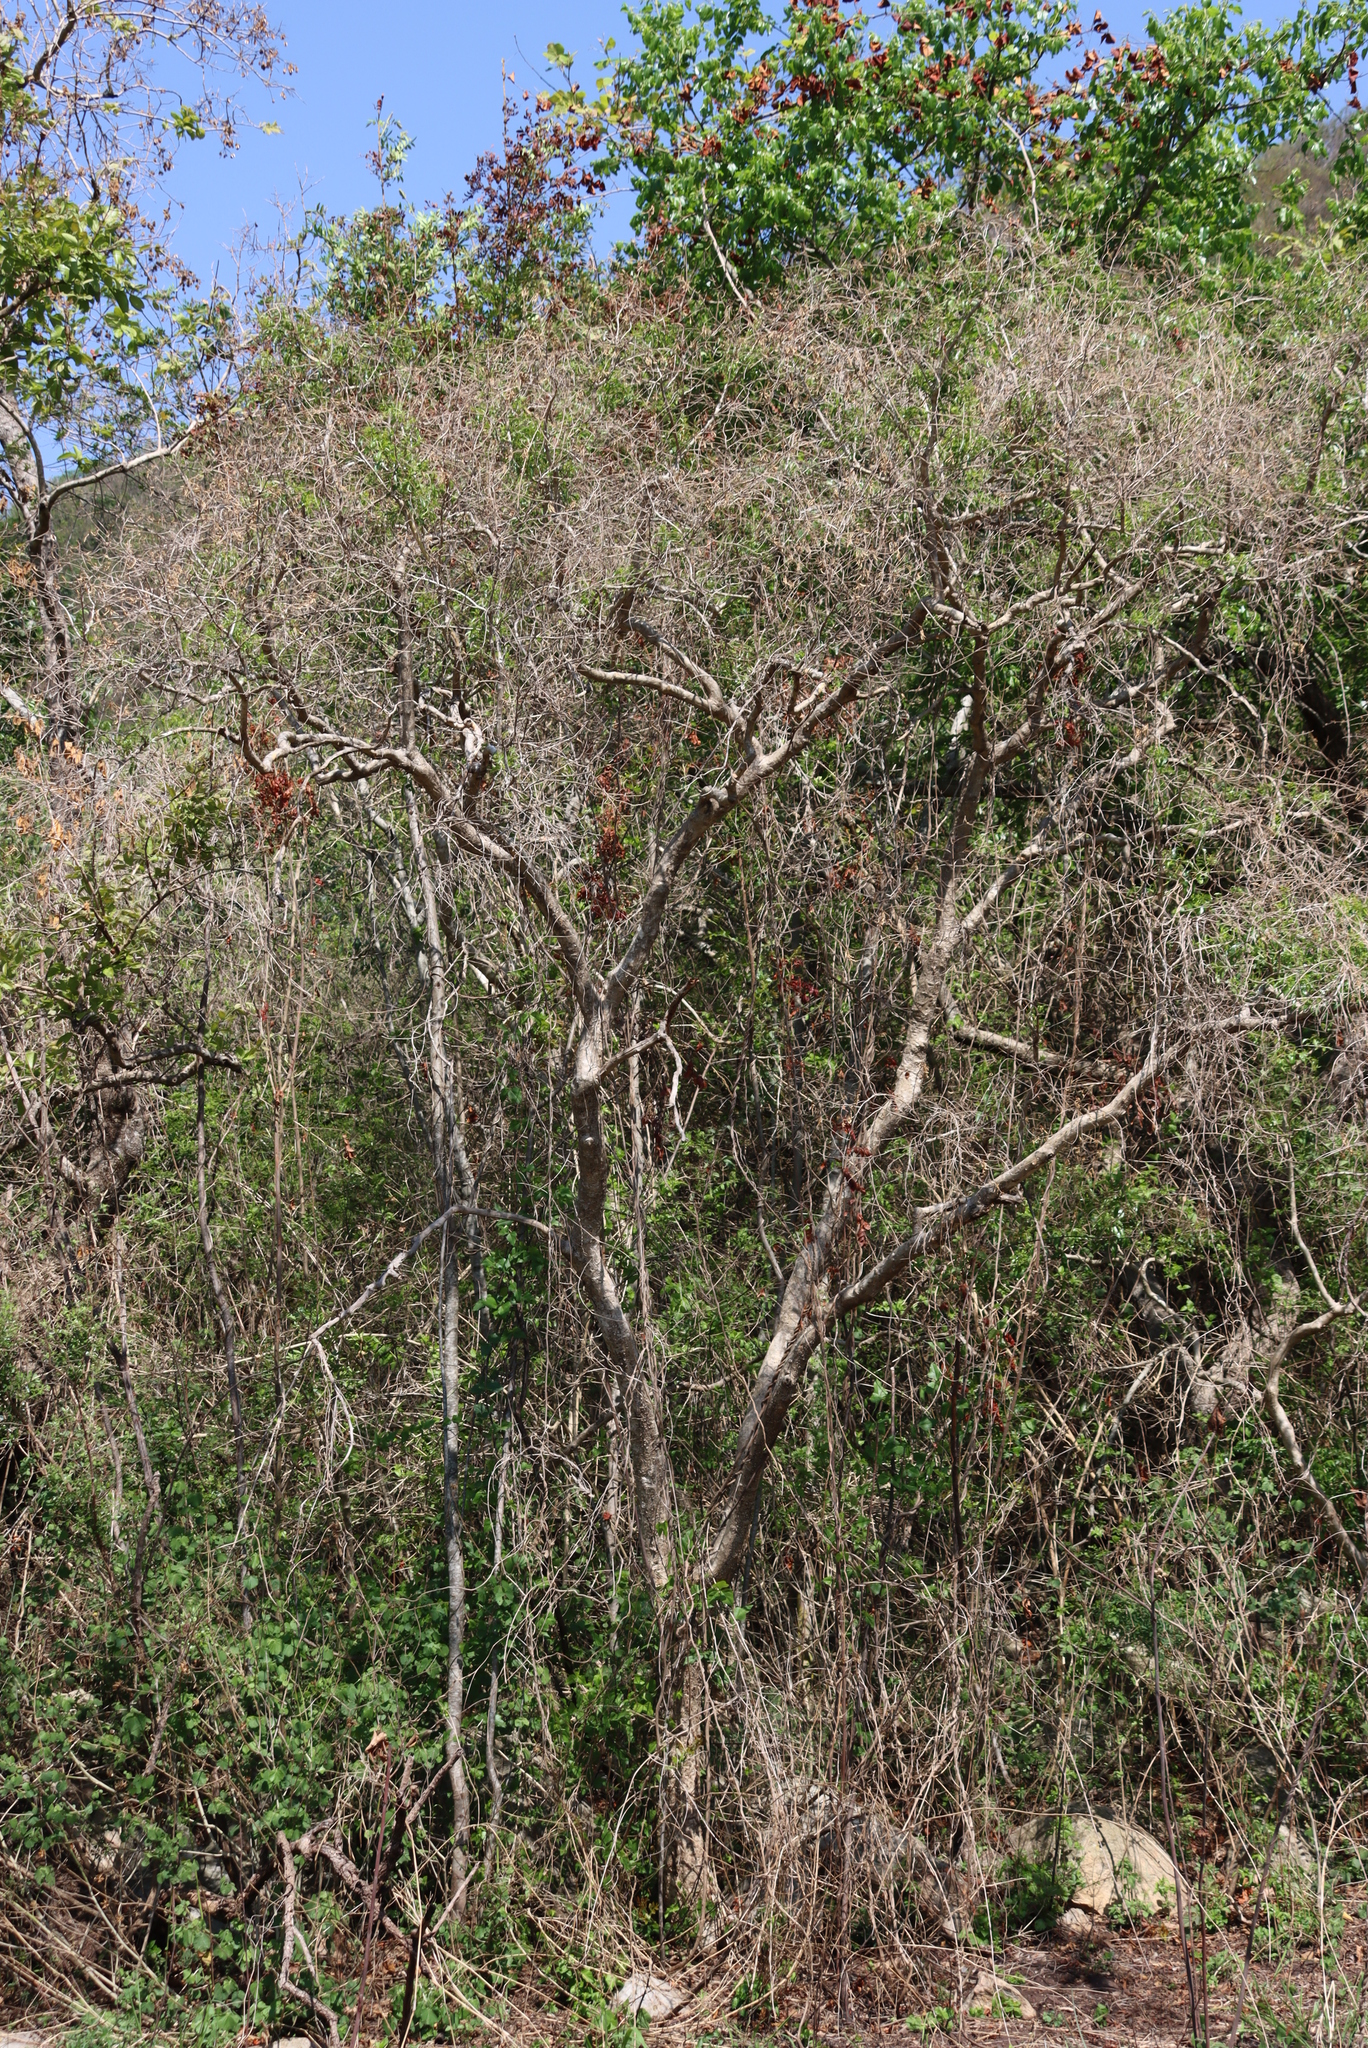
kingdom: Plantae
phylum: Tracheophyta
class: Magnoliopsida
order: Myrtales
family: Myrtaceae
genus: Heteropyxis
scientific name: Heteropyxis natalensis
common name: Lavender tree
